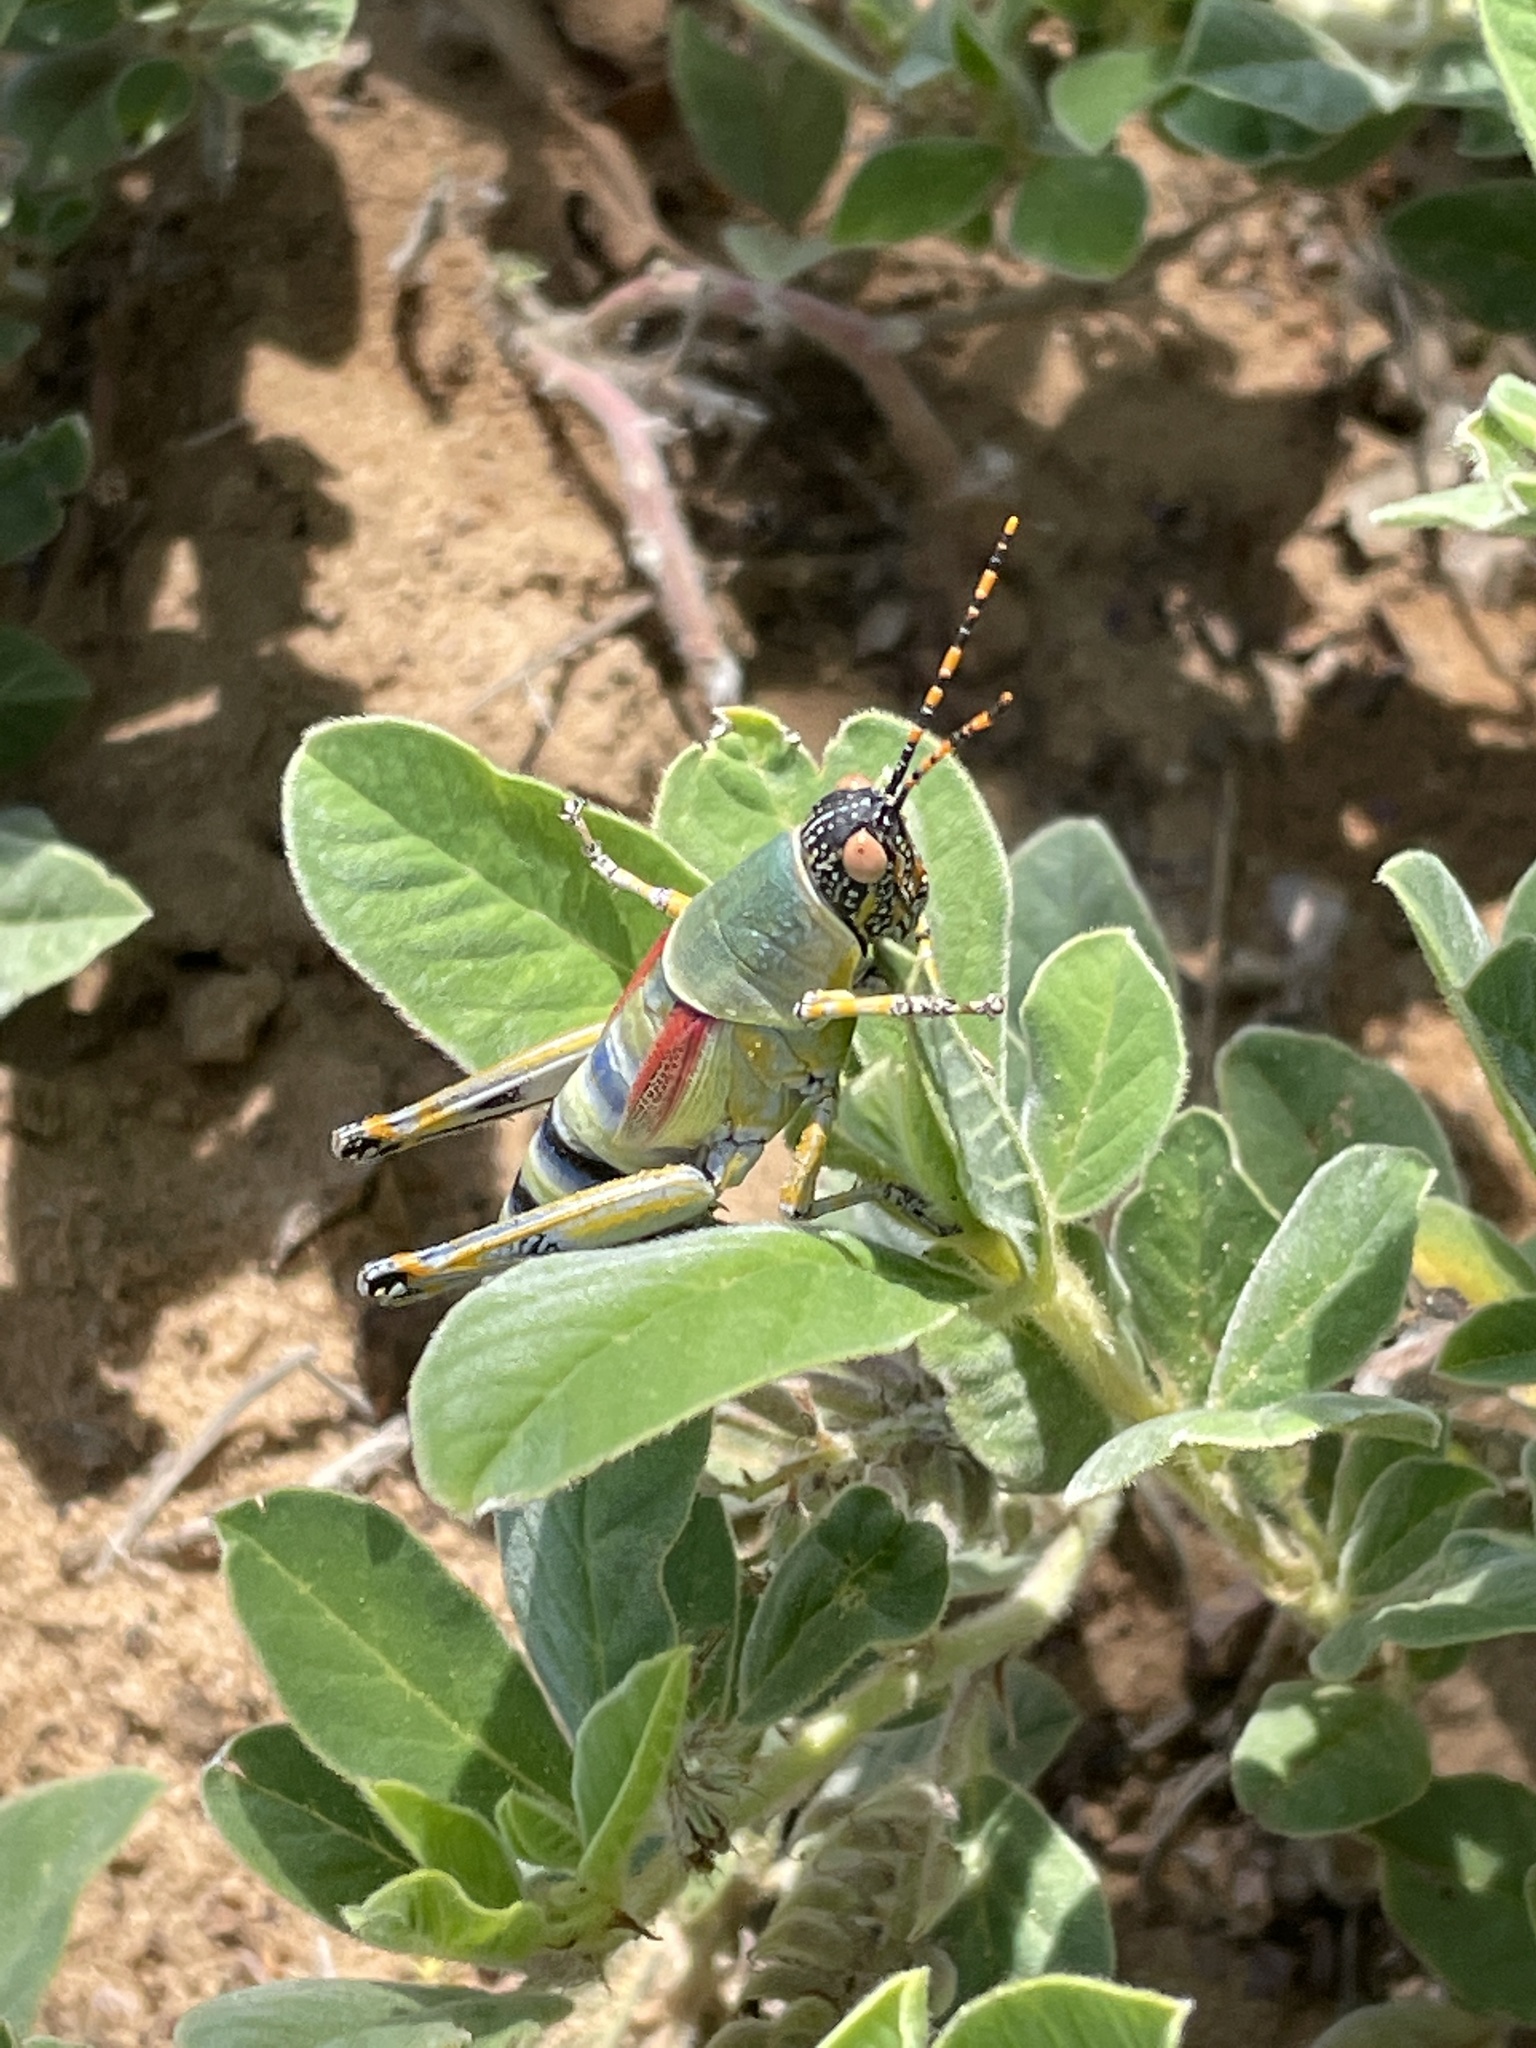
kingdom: Animalia
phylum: Arthropoda
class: Insecta
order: Orthoptera
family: Pyrgomorphidae
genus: Zonocerus
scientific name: Zonocerus elegans
